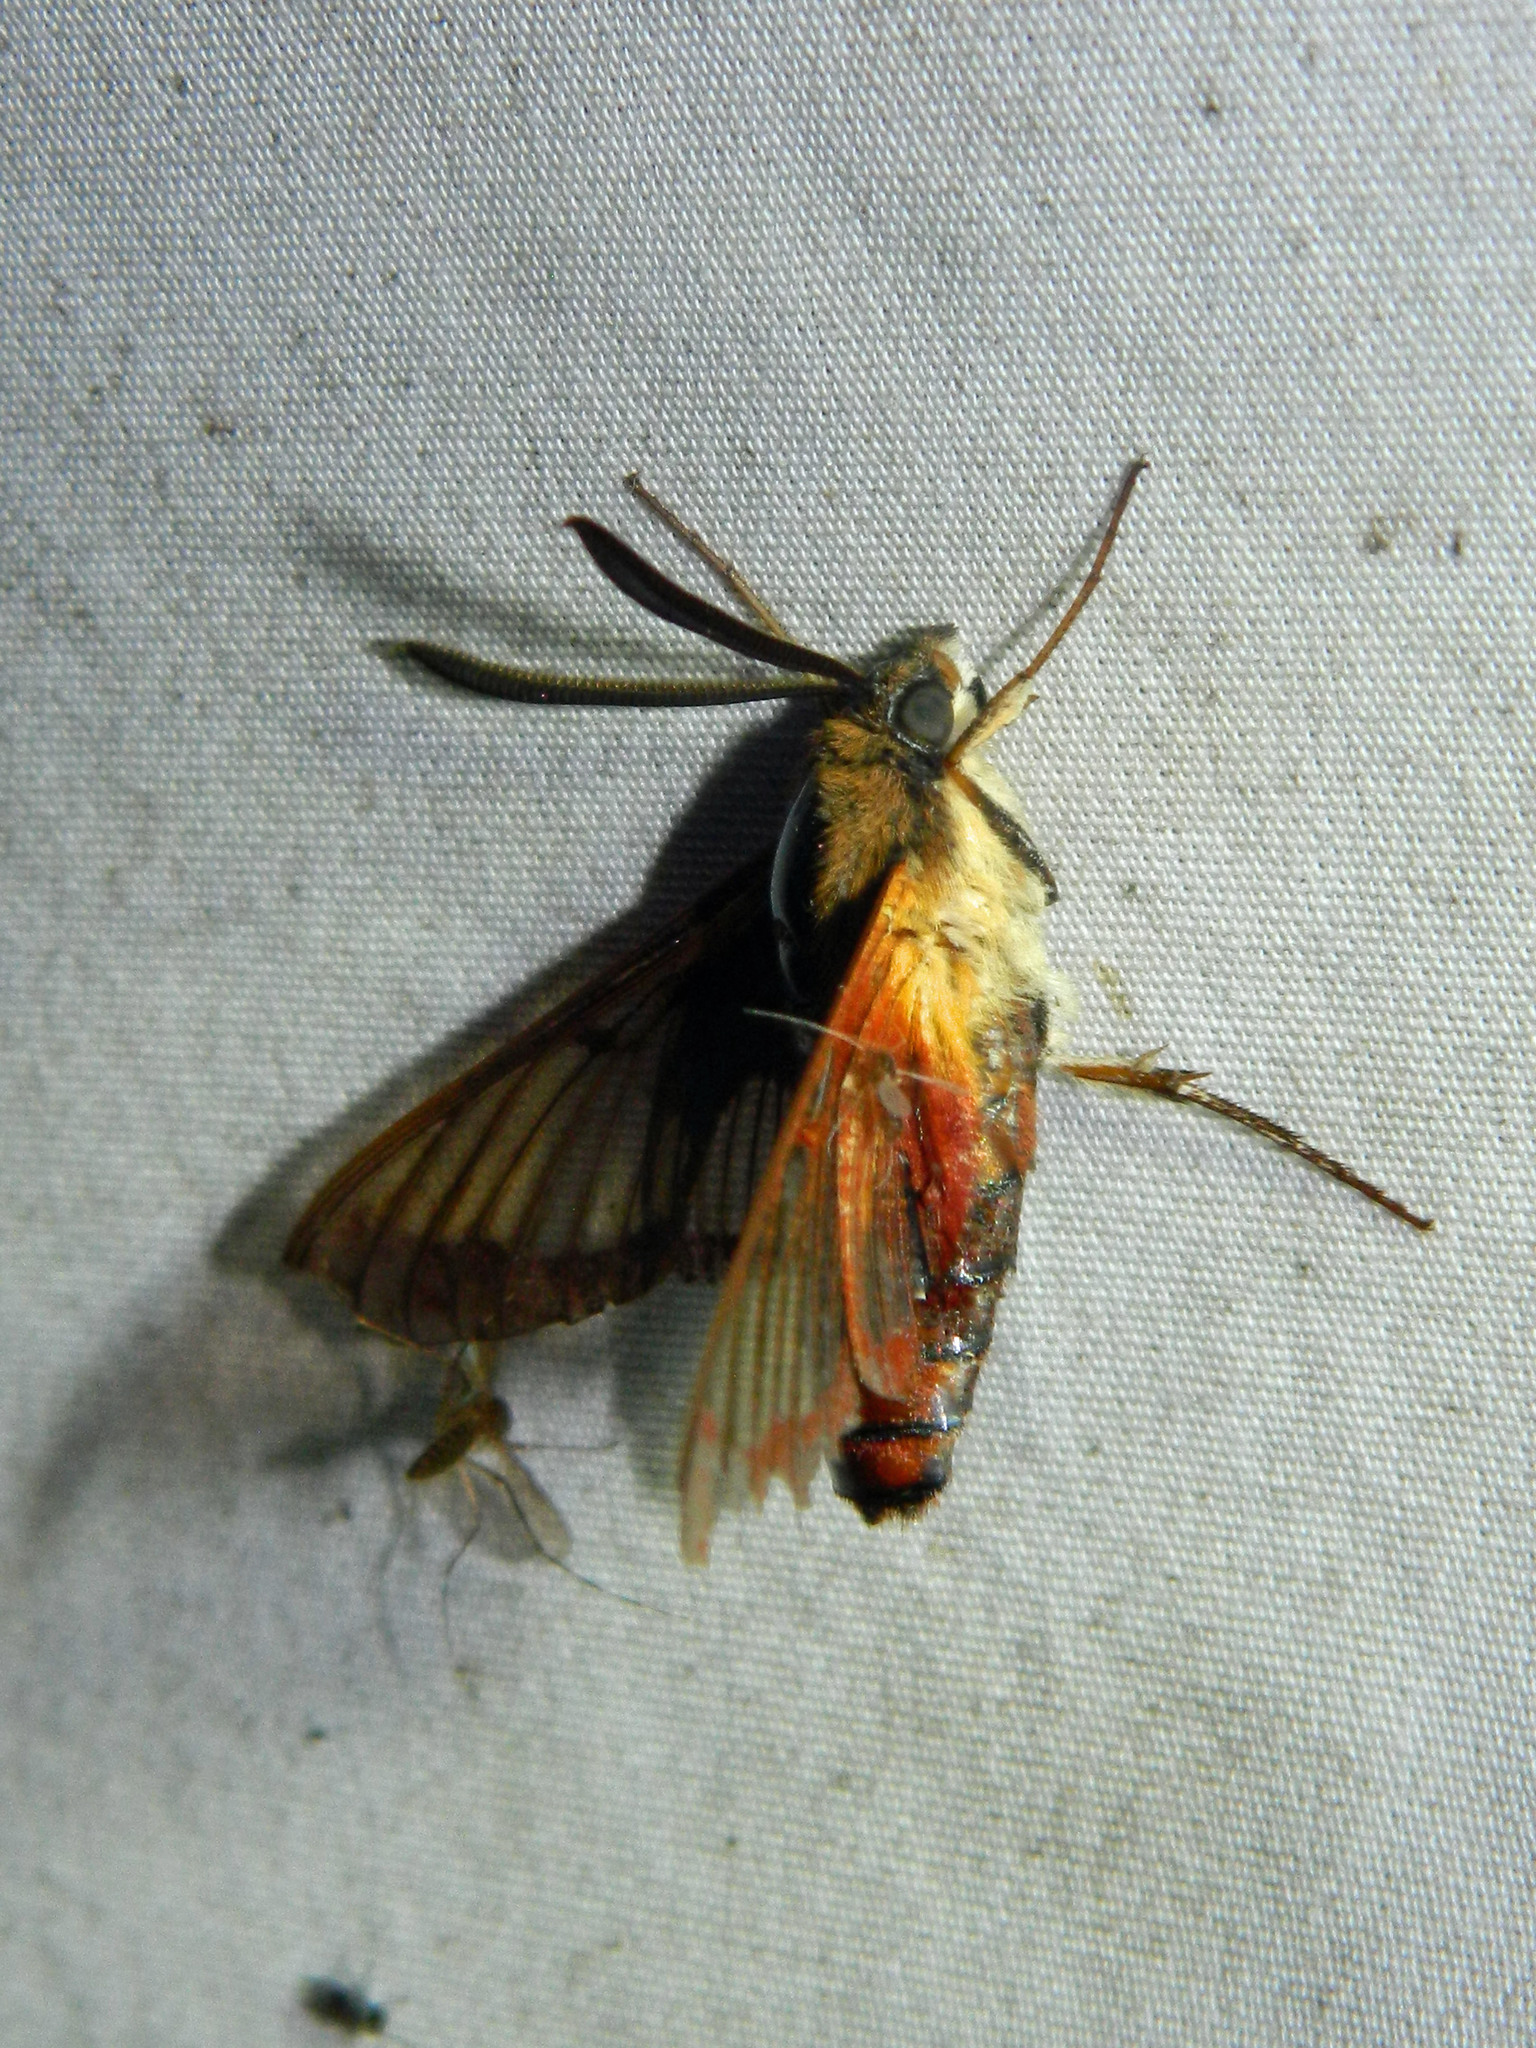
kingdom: Animalia
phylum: Arthropoda
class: Insecta
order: Lepidoptera
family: Sphingidae
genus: Hemaris
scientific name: Hemaris thysbe
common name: Common clear-wing
